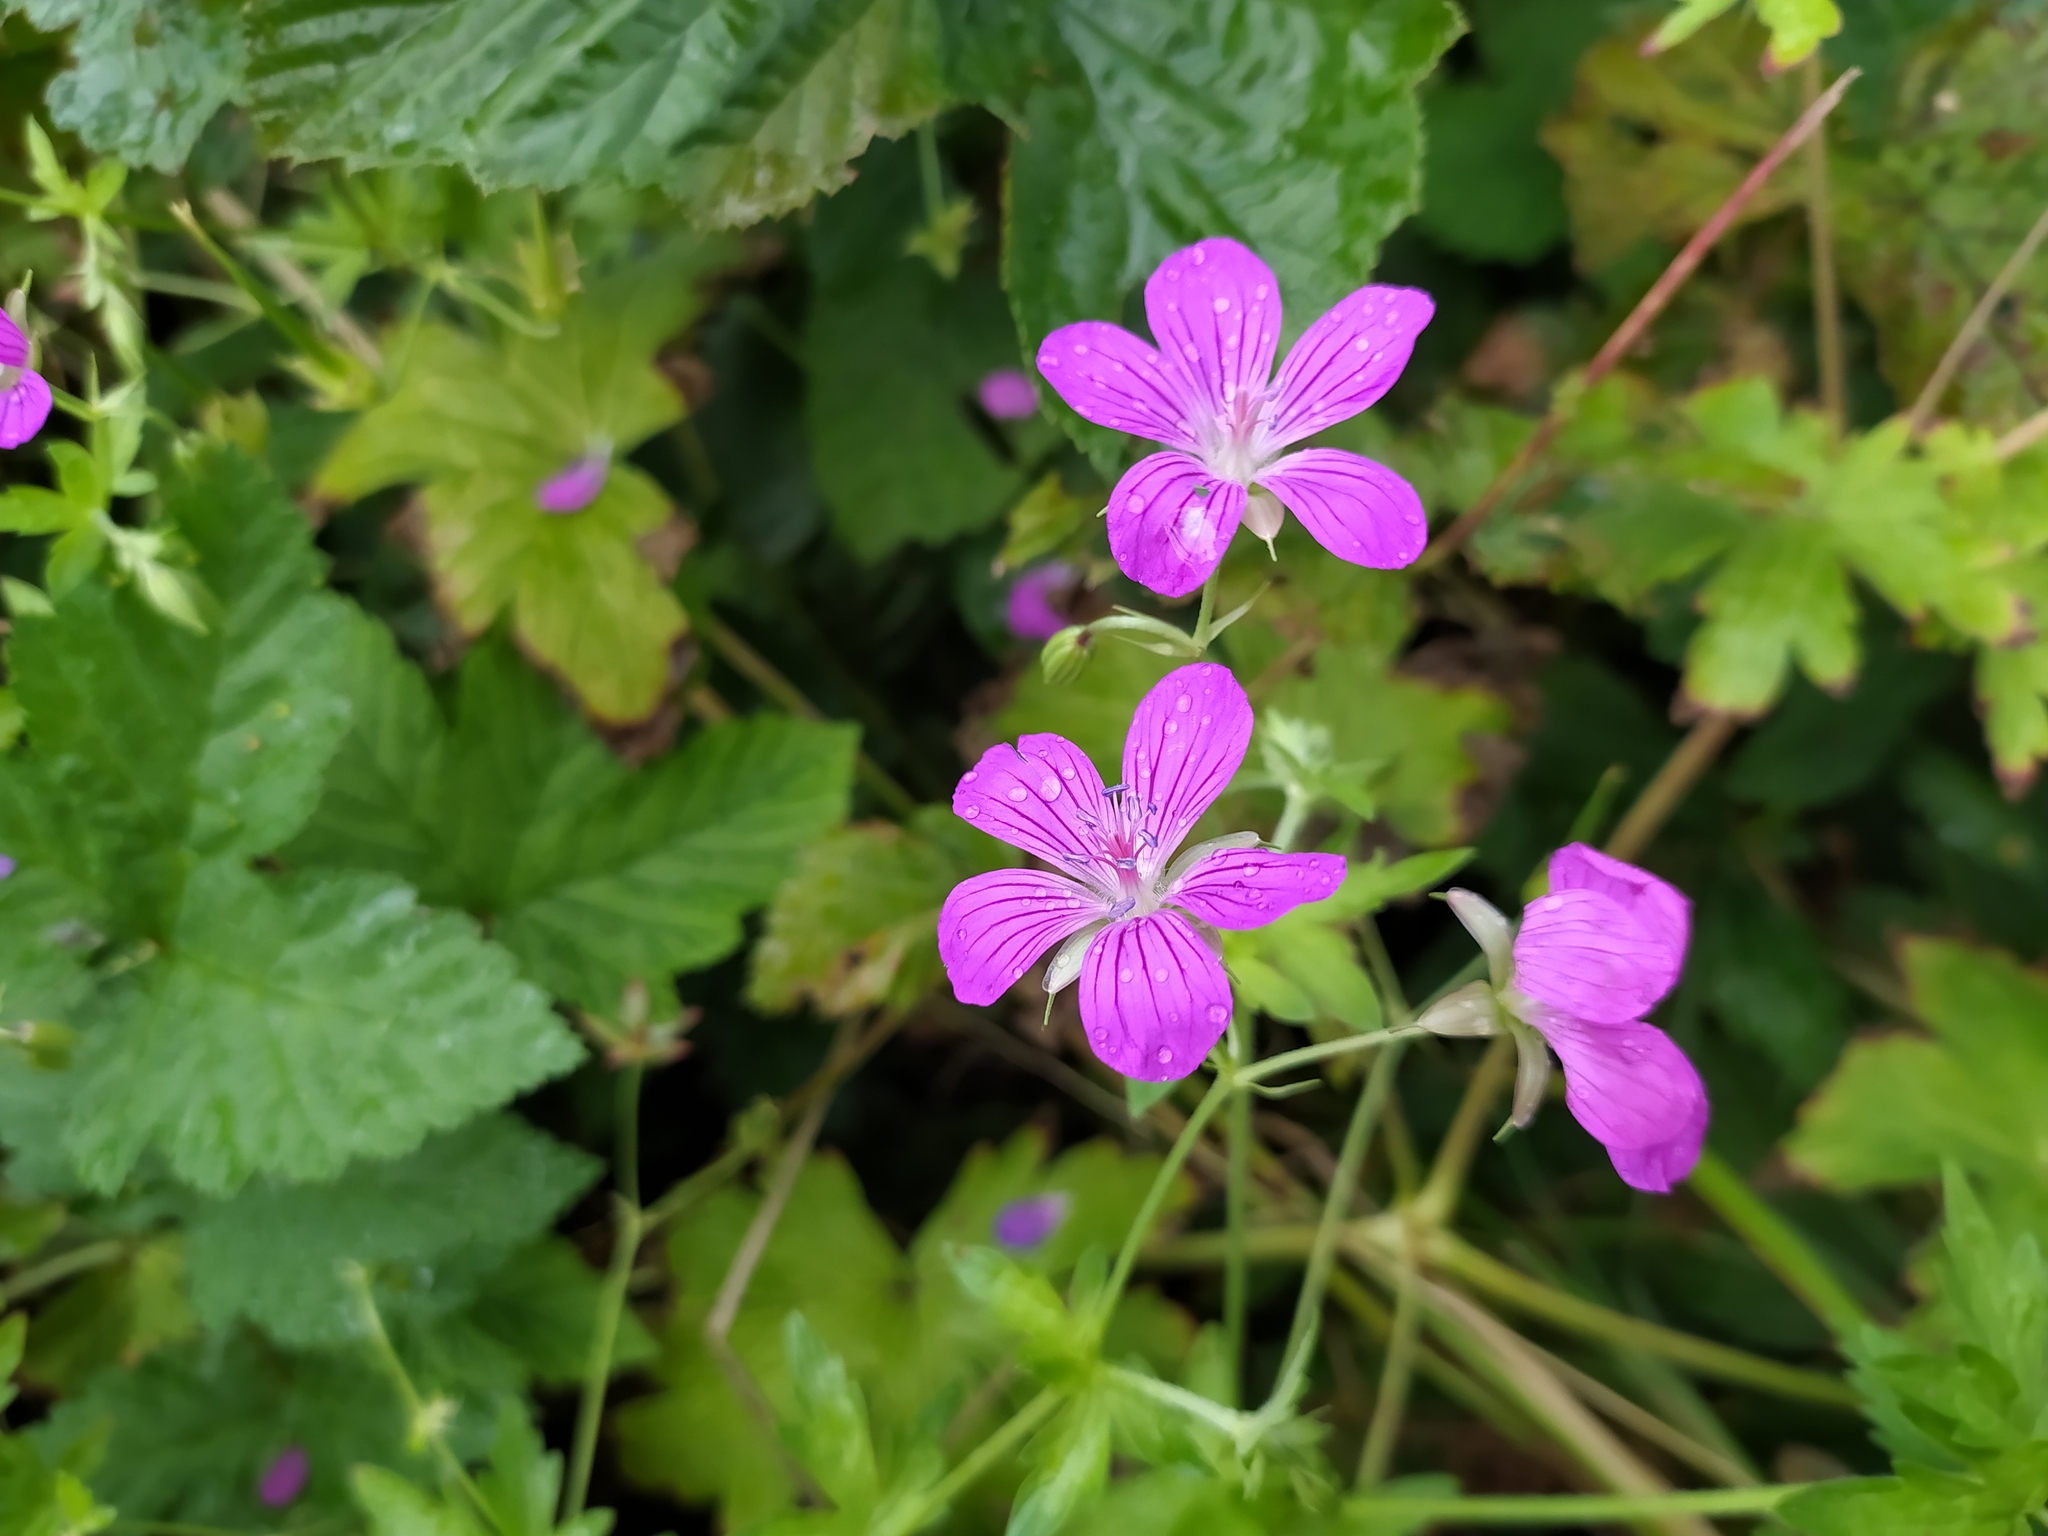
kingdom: Plantae
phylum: Tracheophyta
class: Magnoliopsida
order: Geraniales
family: Geraniaceae
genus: Geranium
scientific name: Geranium palustre
